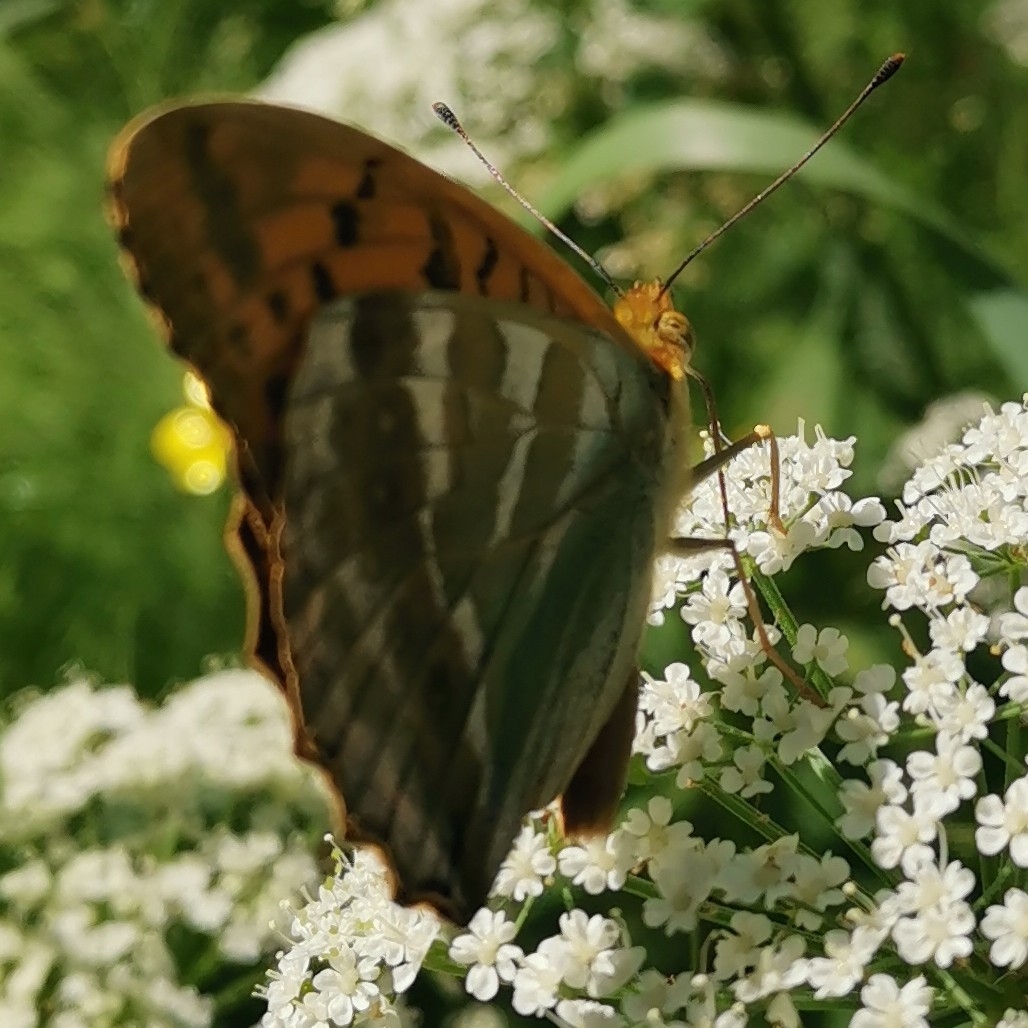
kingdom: Animalia
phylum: Arthropoda
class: Insecta
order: Lepidoptera
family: Nymphalidae
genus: Argynnis
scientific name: Argynnis paphia
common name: Silver-washed fritillary
